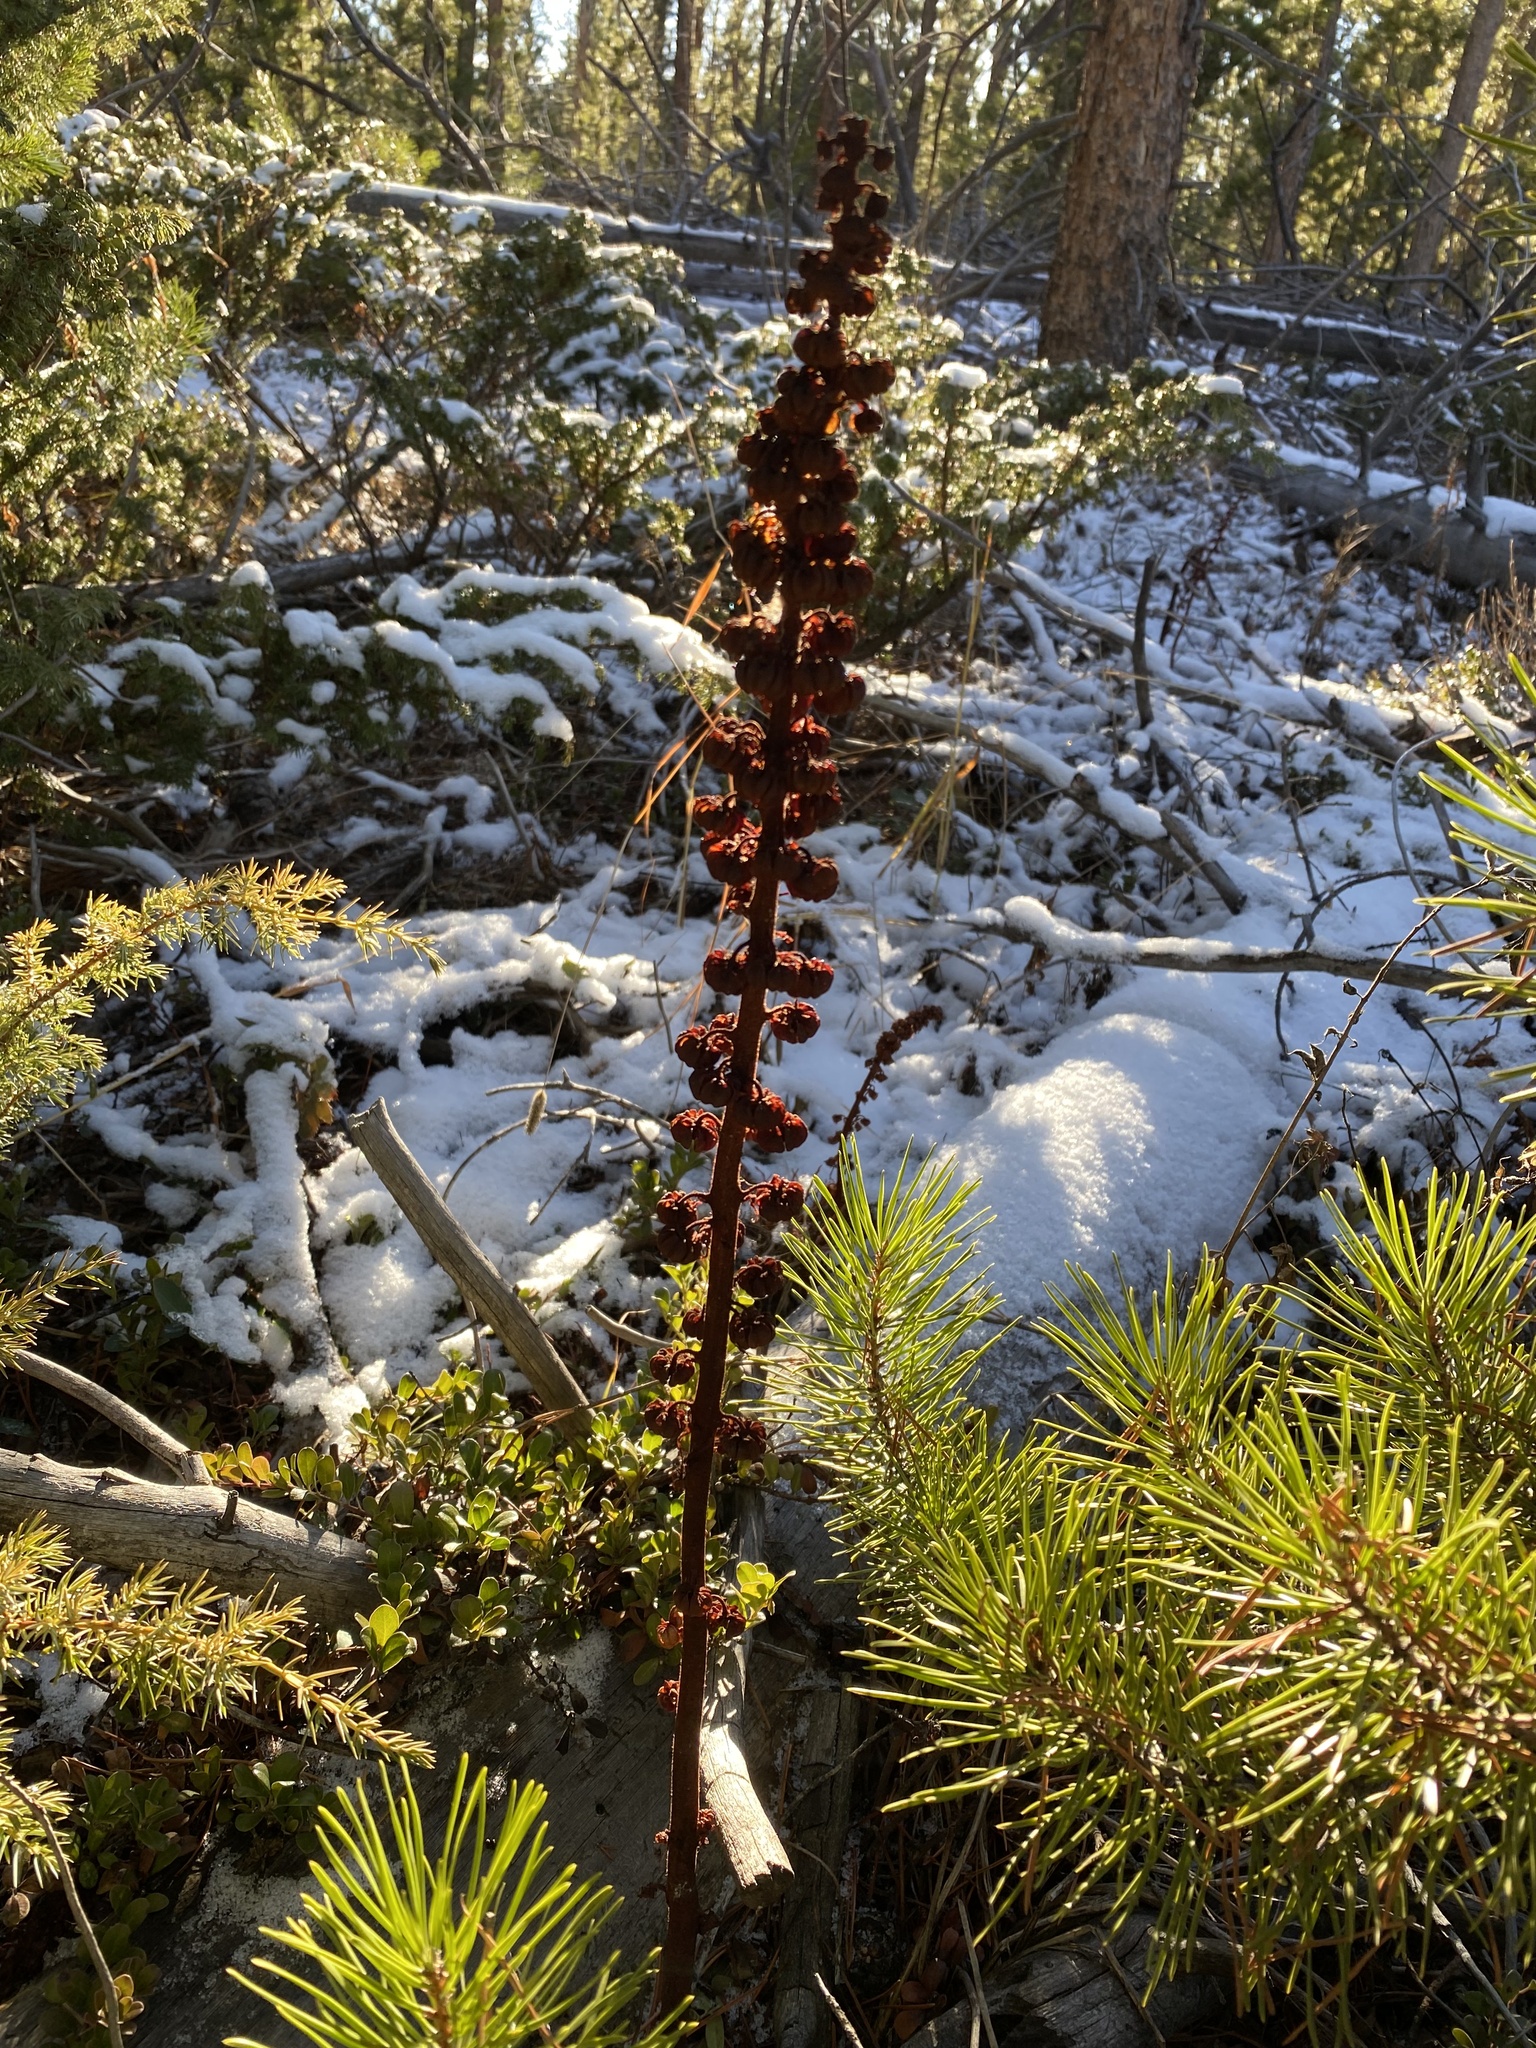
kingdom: Plantae
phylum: Tracheophyta
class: Magnoliopsida
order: Ericales
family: Ericaceae
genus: Pterospora
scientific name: Pterospora andromedea
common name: Giant bird's-nest
